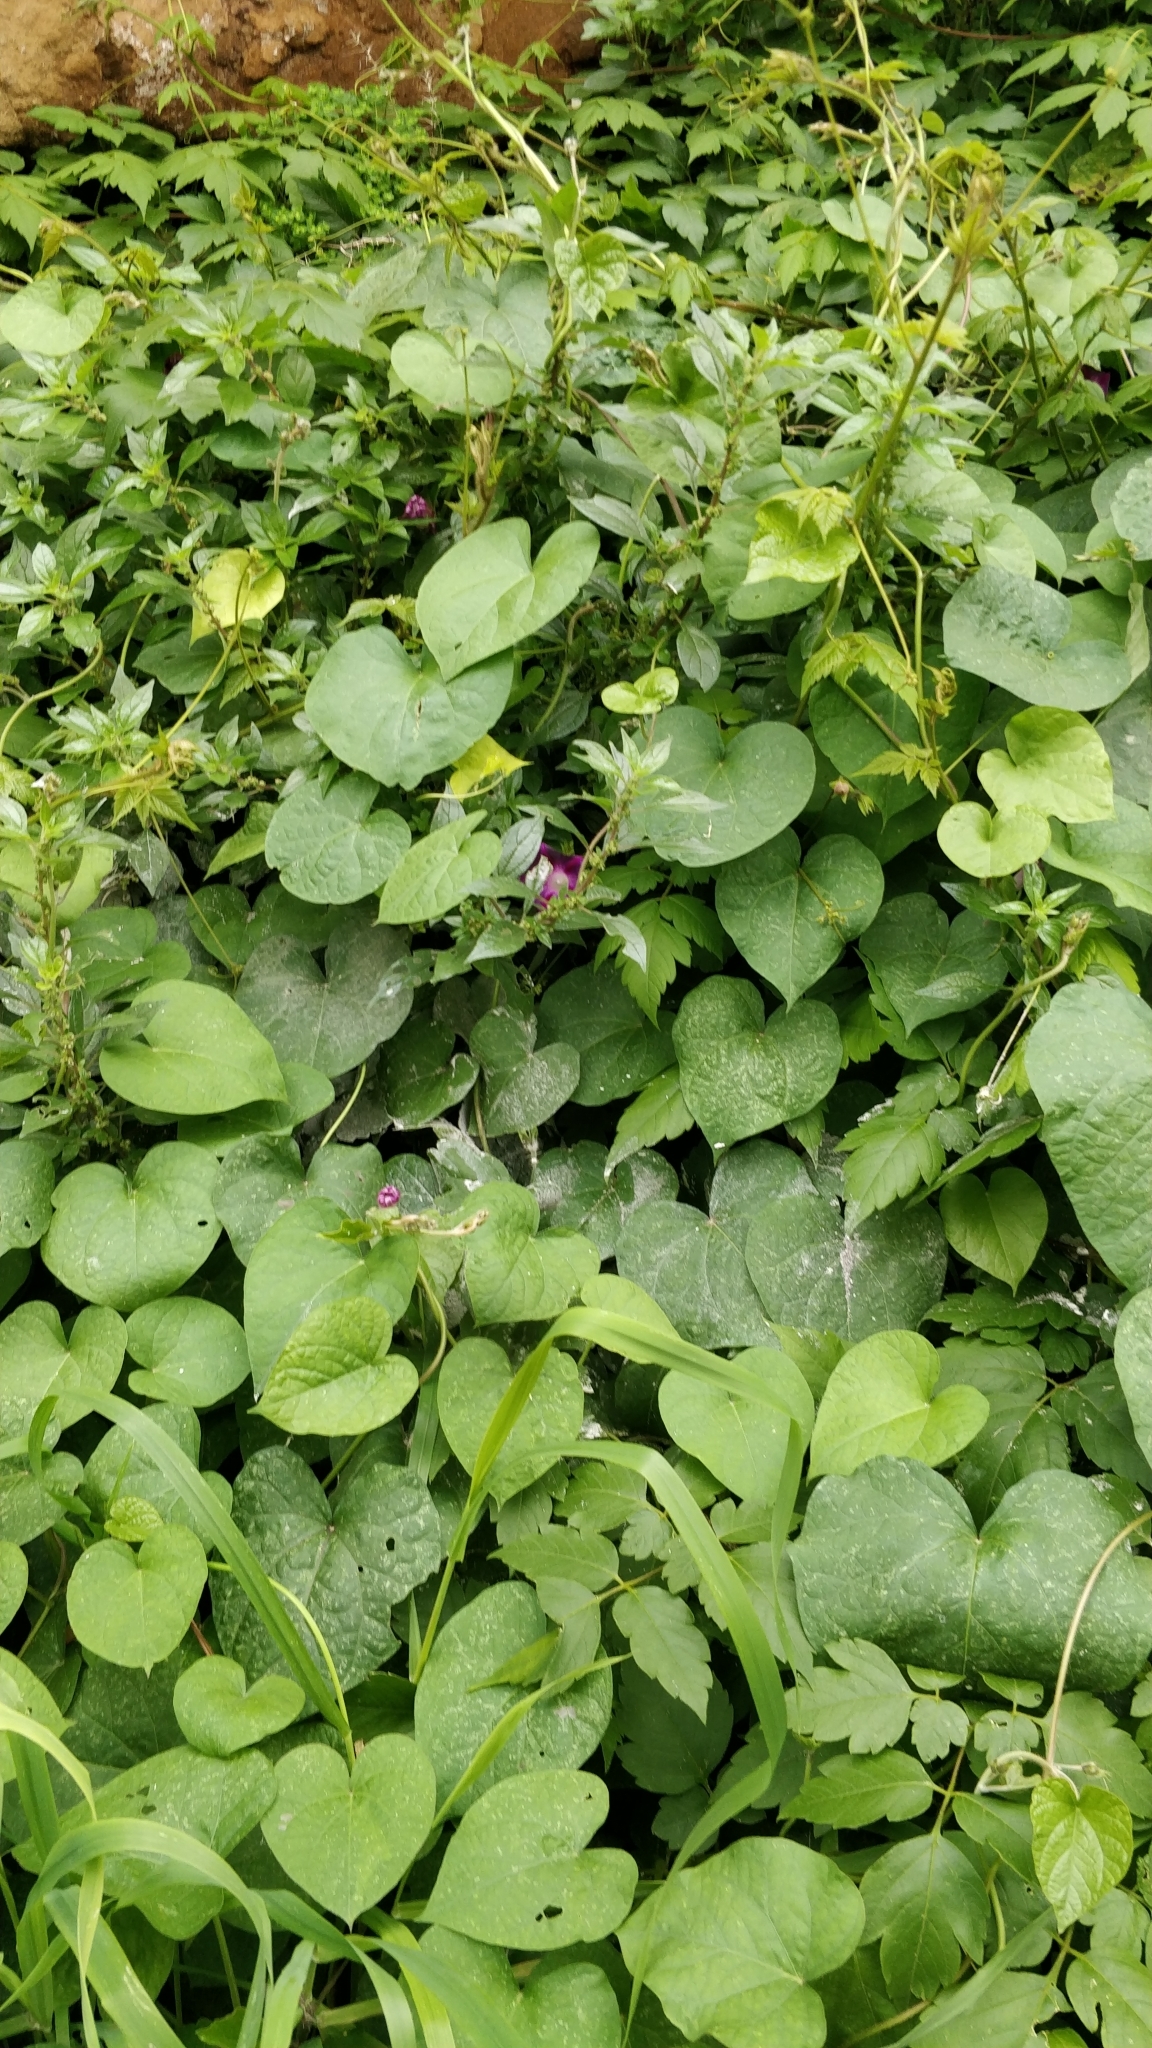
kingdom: Plantae
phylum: Tracheophyta
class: Magnoliopsida
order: Solanales
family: Convolvulaceae
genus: Ipomoea
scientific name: Ipomoea purpurea
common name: Common morning-glory
